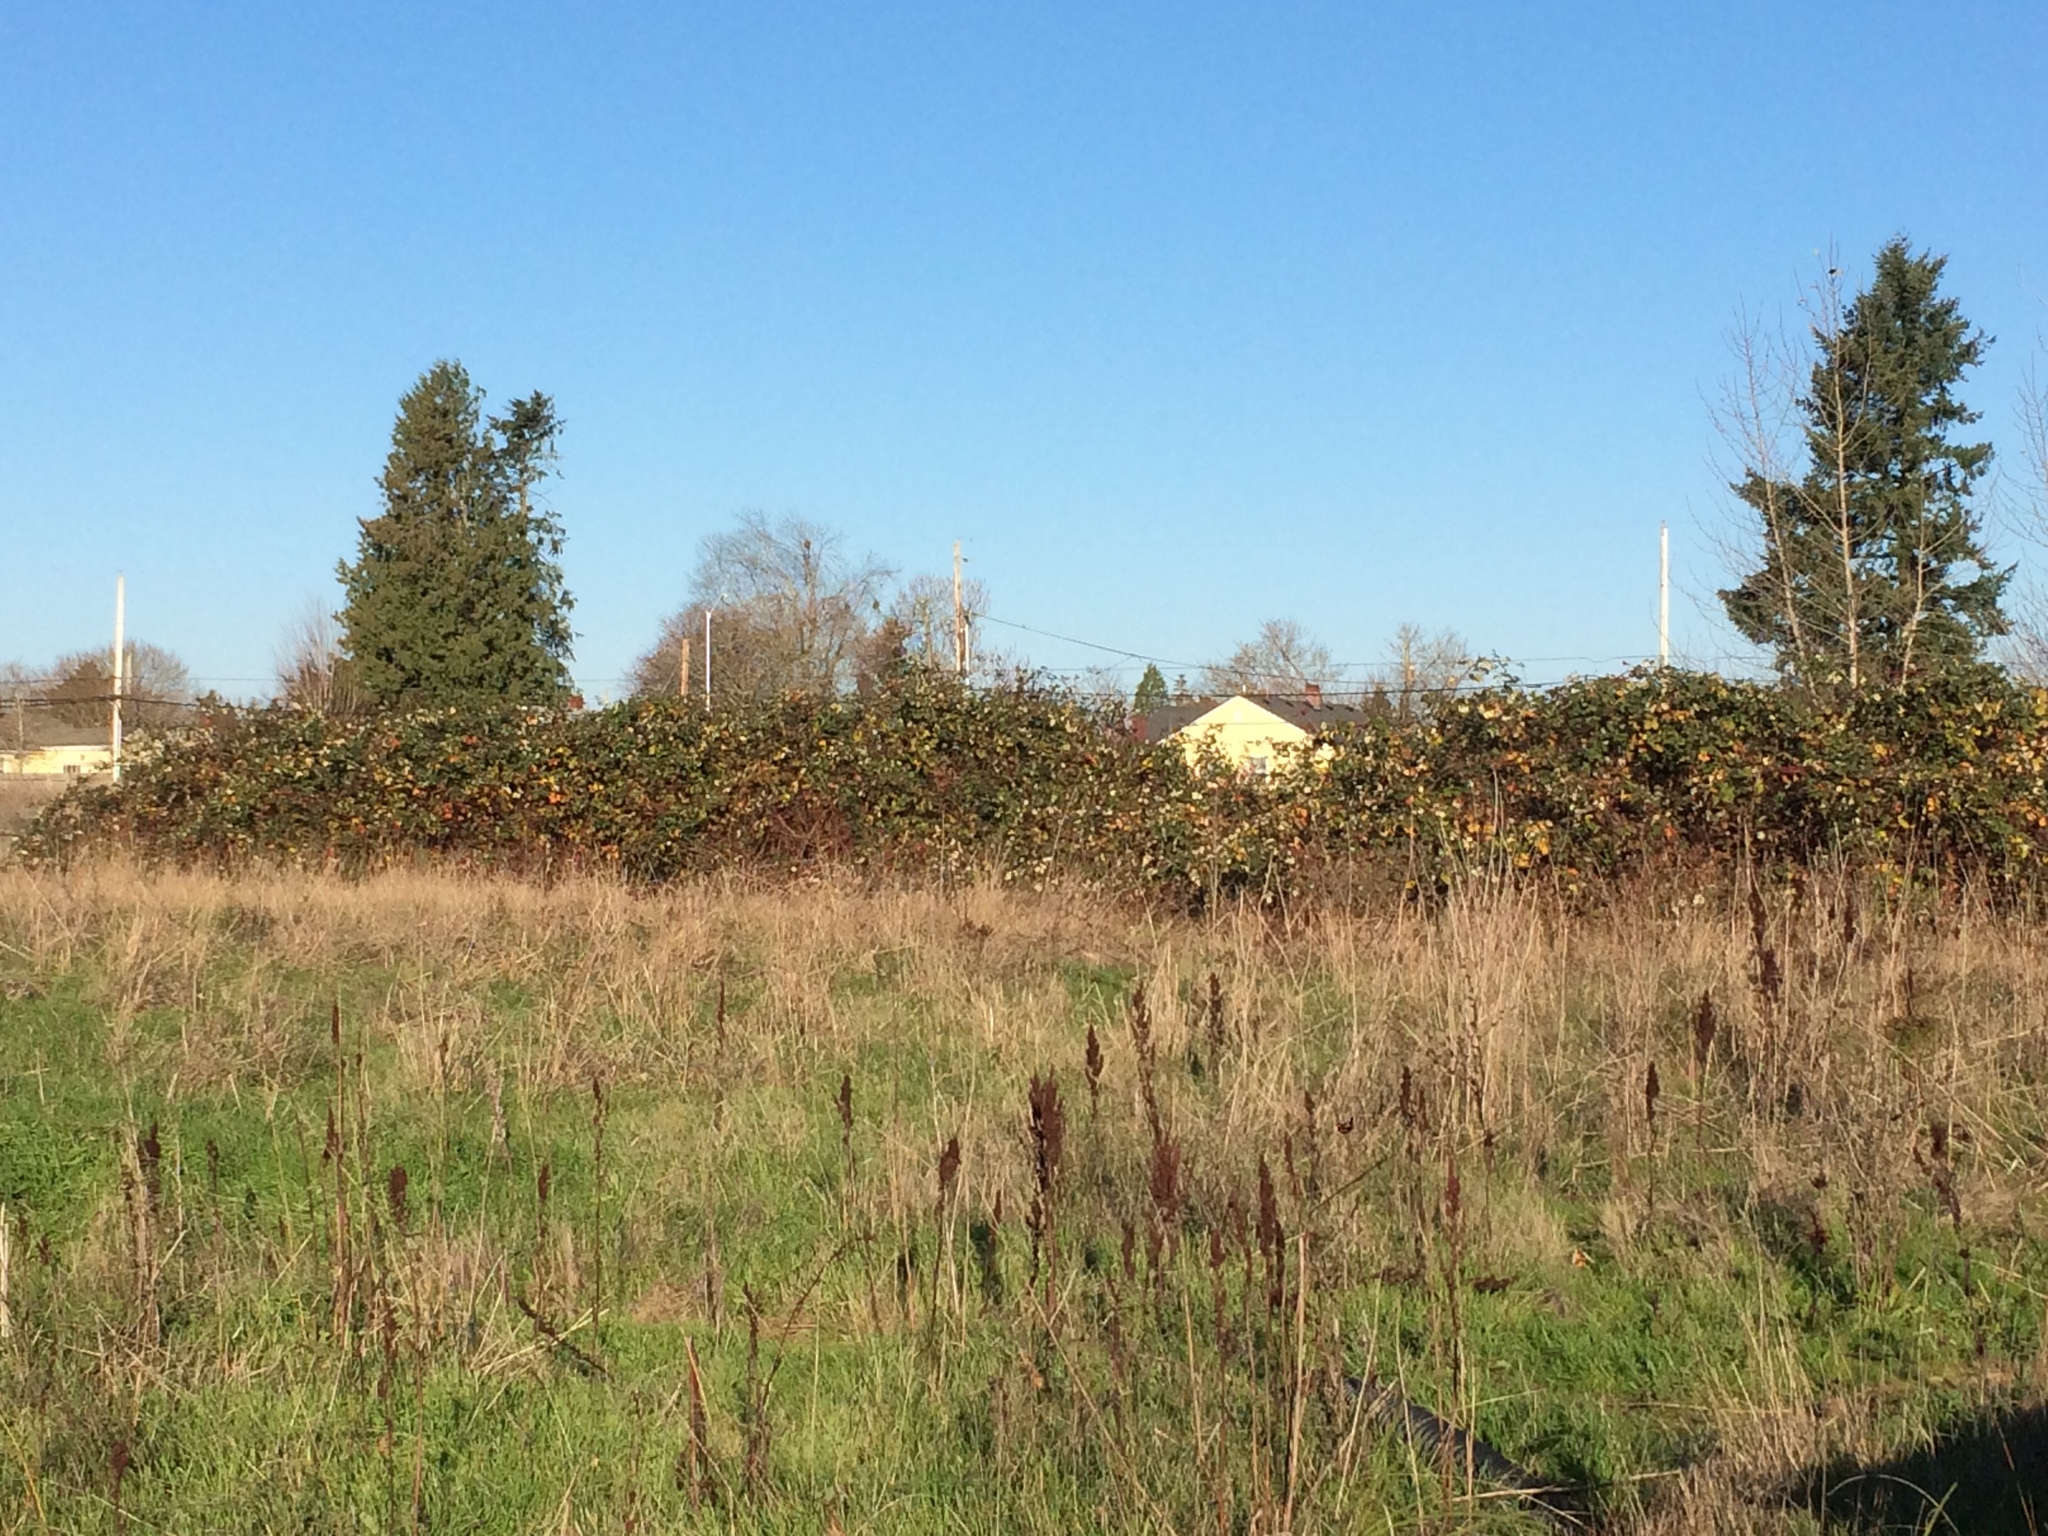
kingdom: Plantae
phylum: Tracheophyta
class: Magnoliopsida
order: Rosales
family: Rosaceae
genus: Rubus
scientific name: Rubus bifrons
